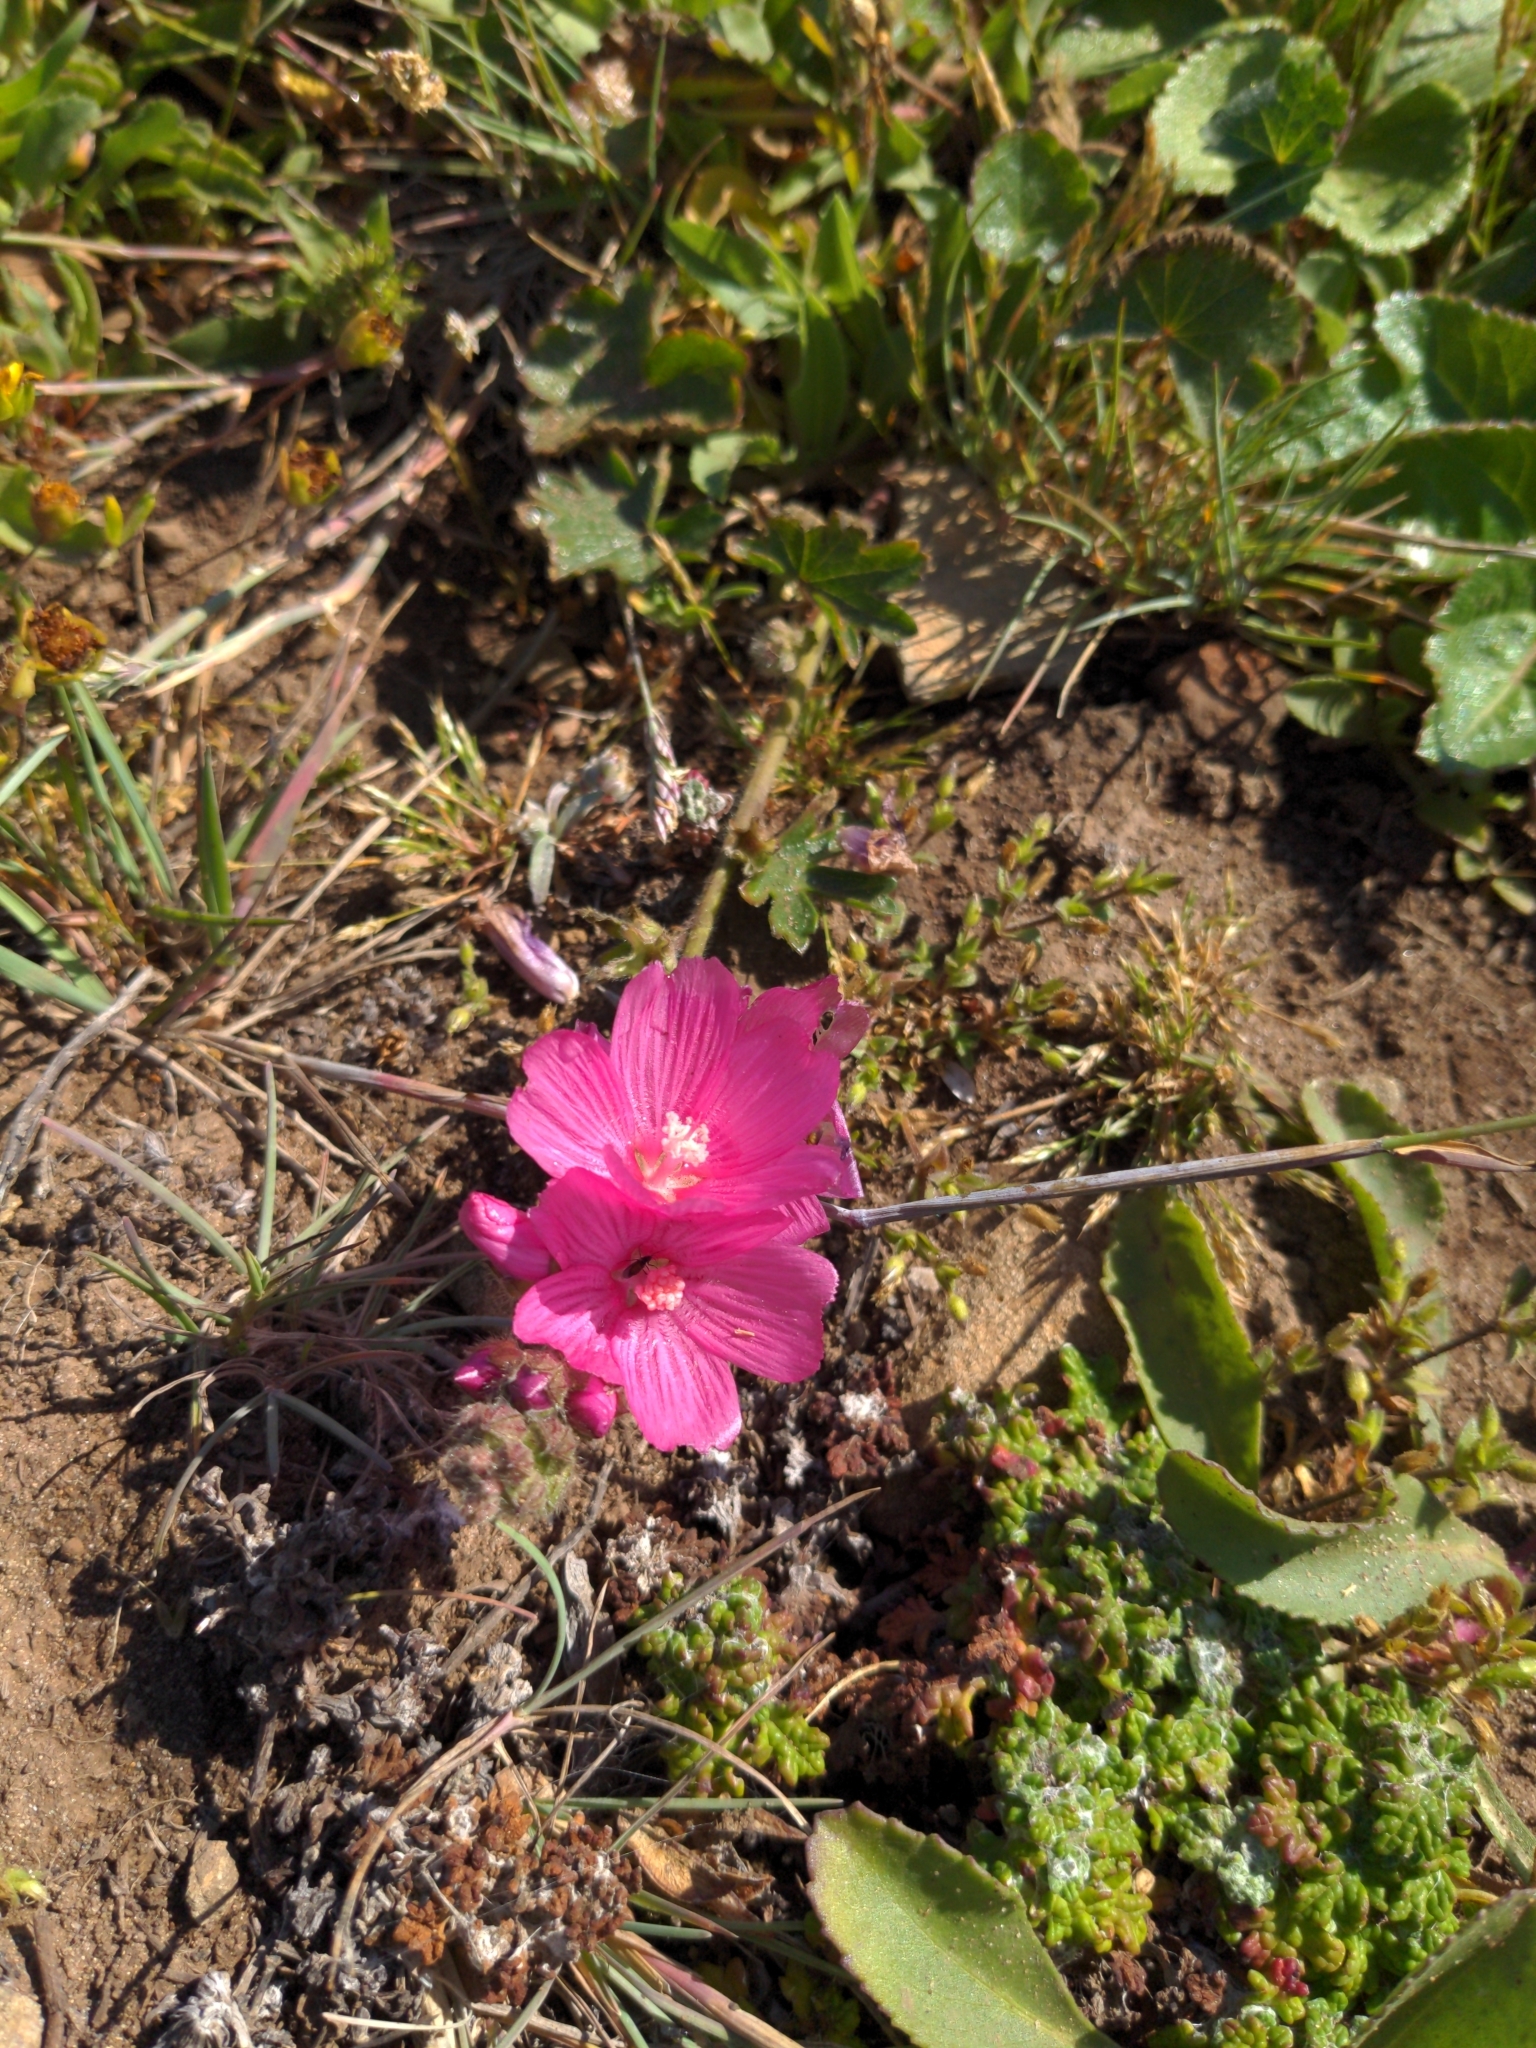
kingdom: Plantae
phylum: Tracheophyta
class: Magnoliopsida
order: Malvales
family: Malvaceae
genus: Sidalcea
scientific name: Sidalcea malviflora
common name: Greek mallow
